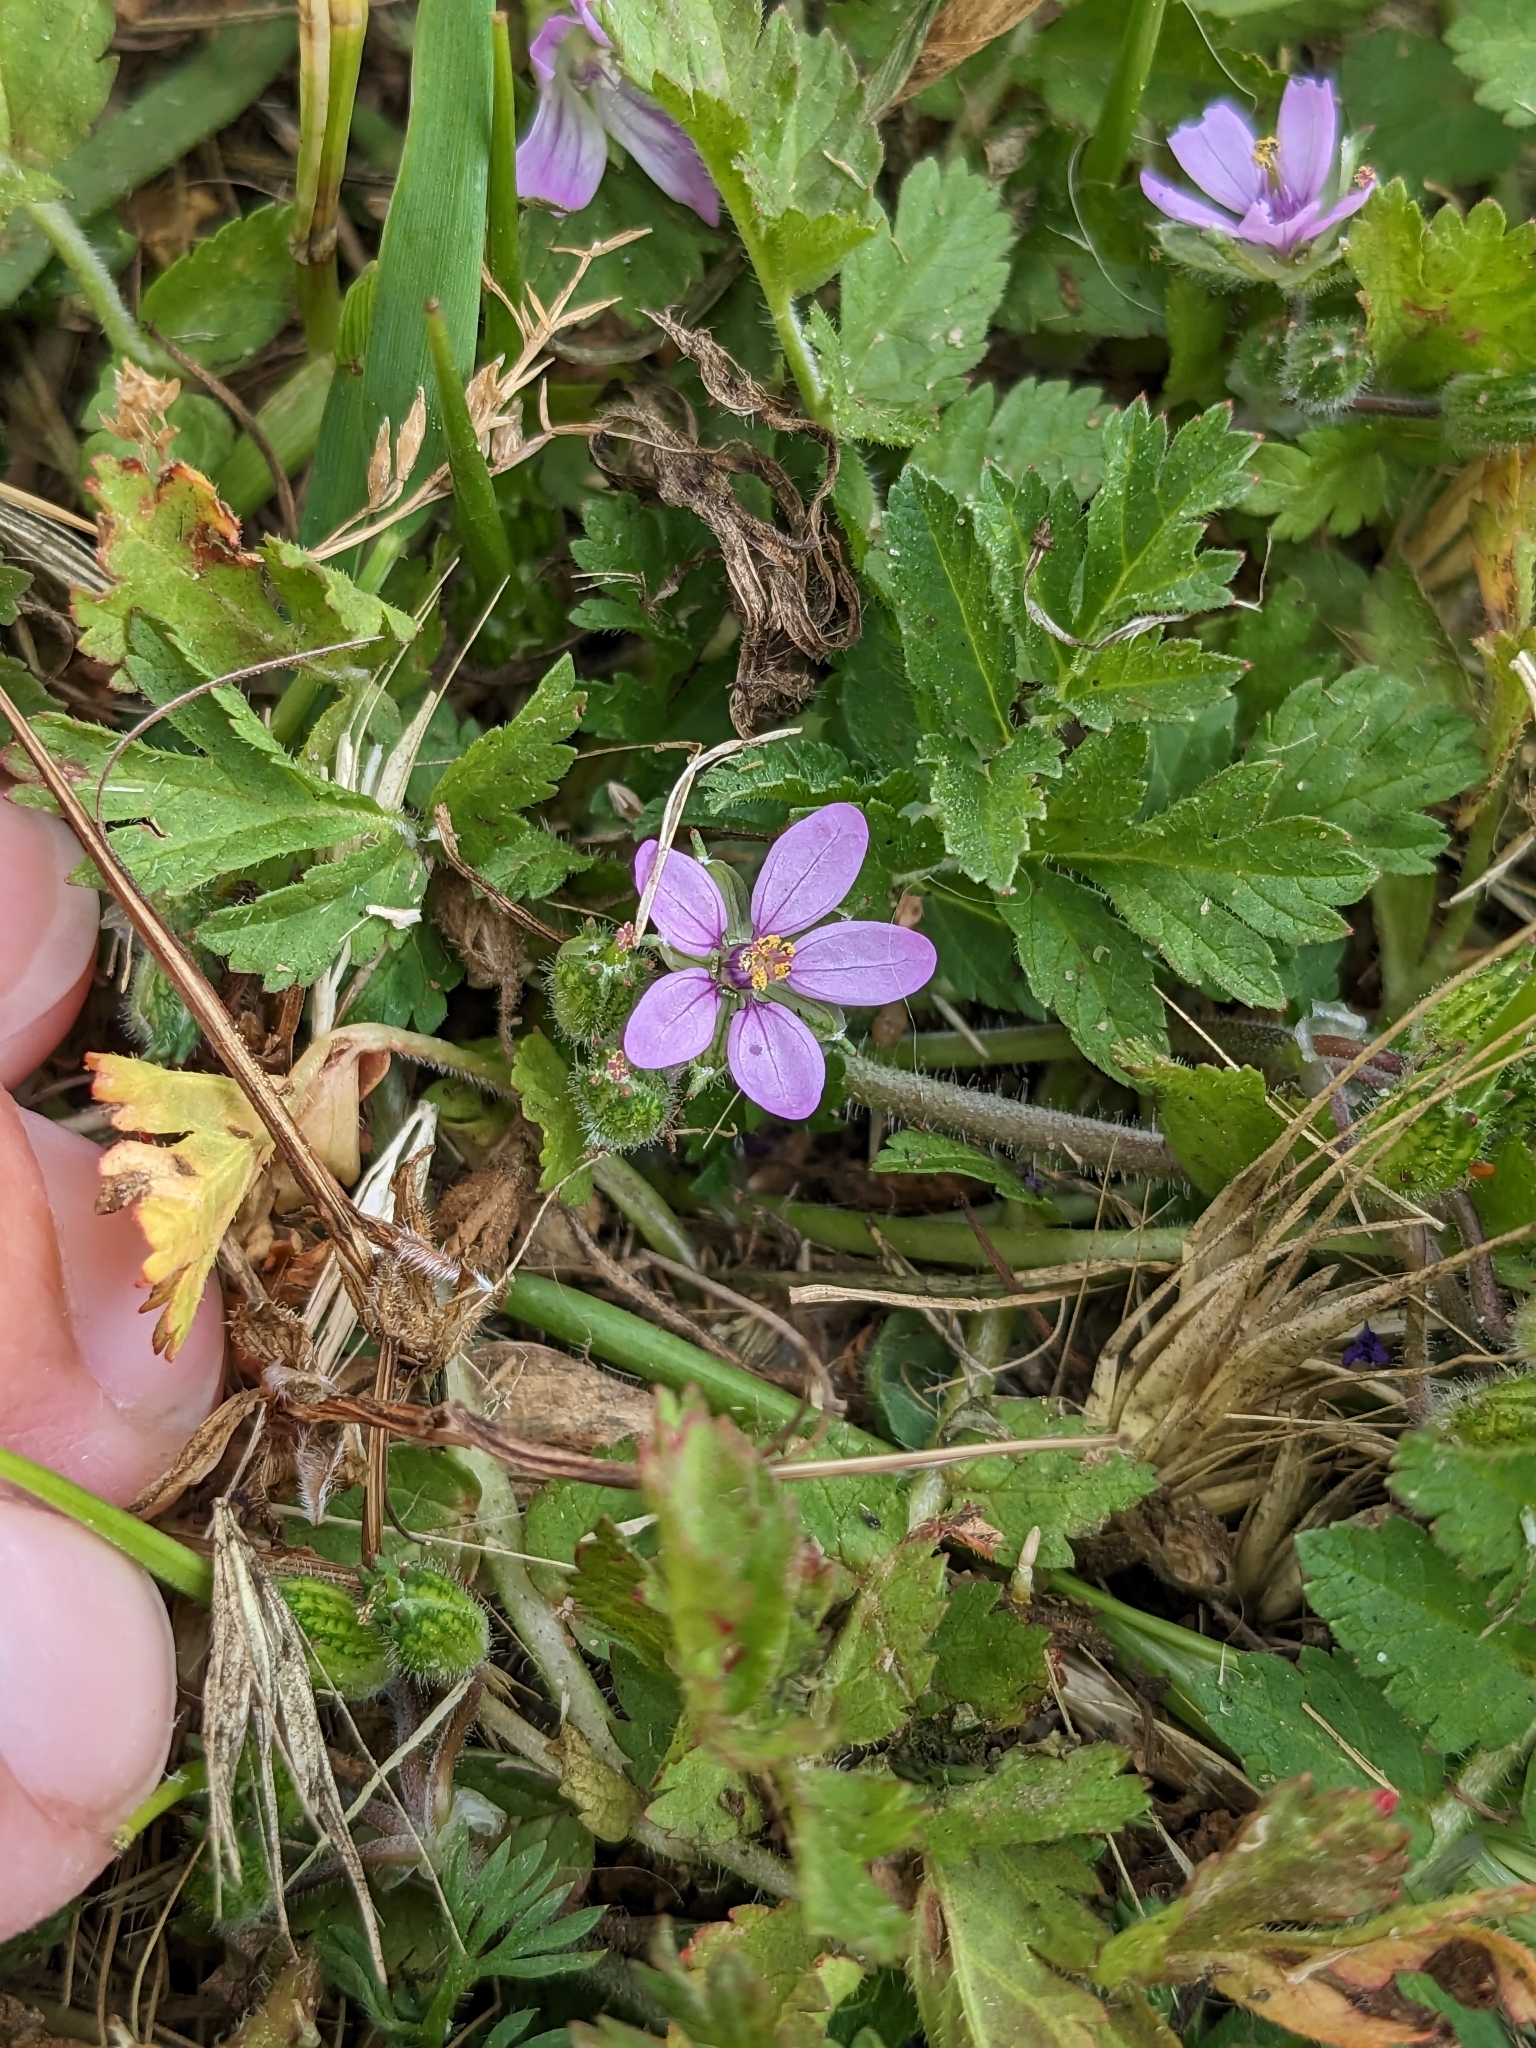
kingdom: Plantae
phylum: Tracheophyta
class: Magnoliopsida
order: Geraniales
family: Geraniaceae
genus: Erodium
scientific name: Erodium moschatum
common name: Musk stork's-bill
